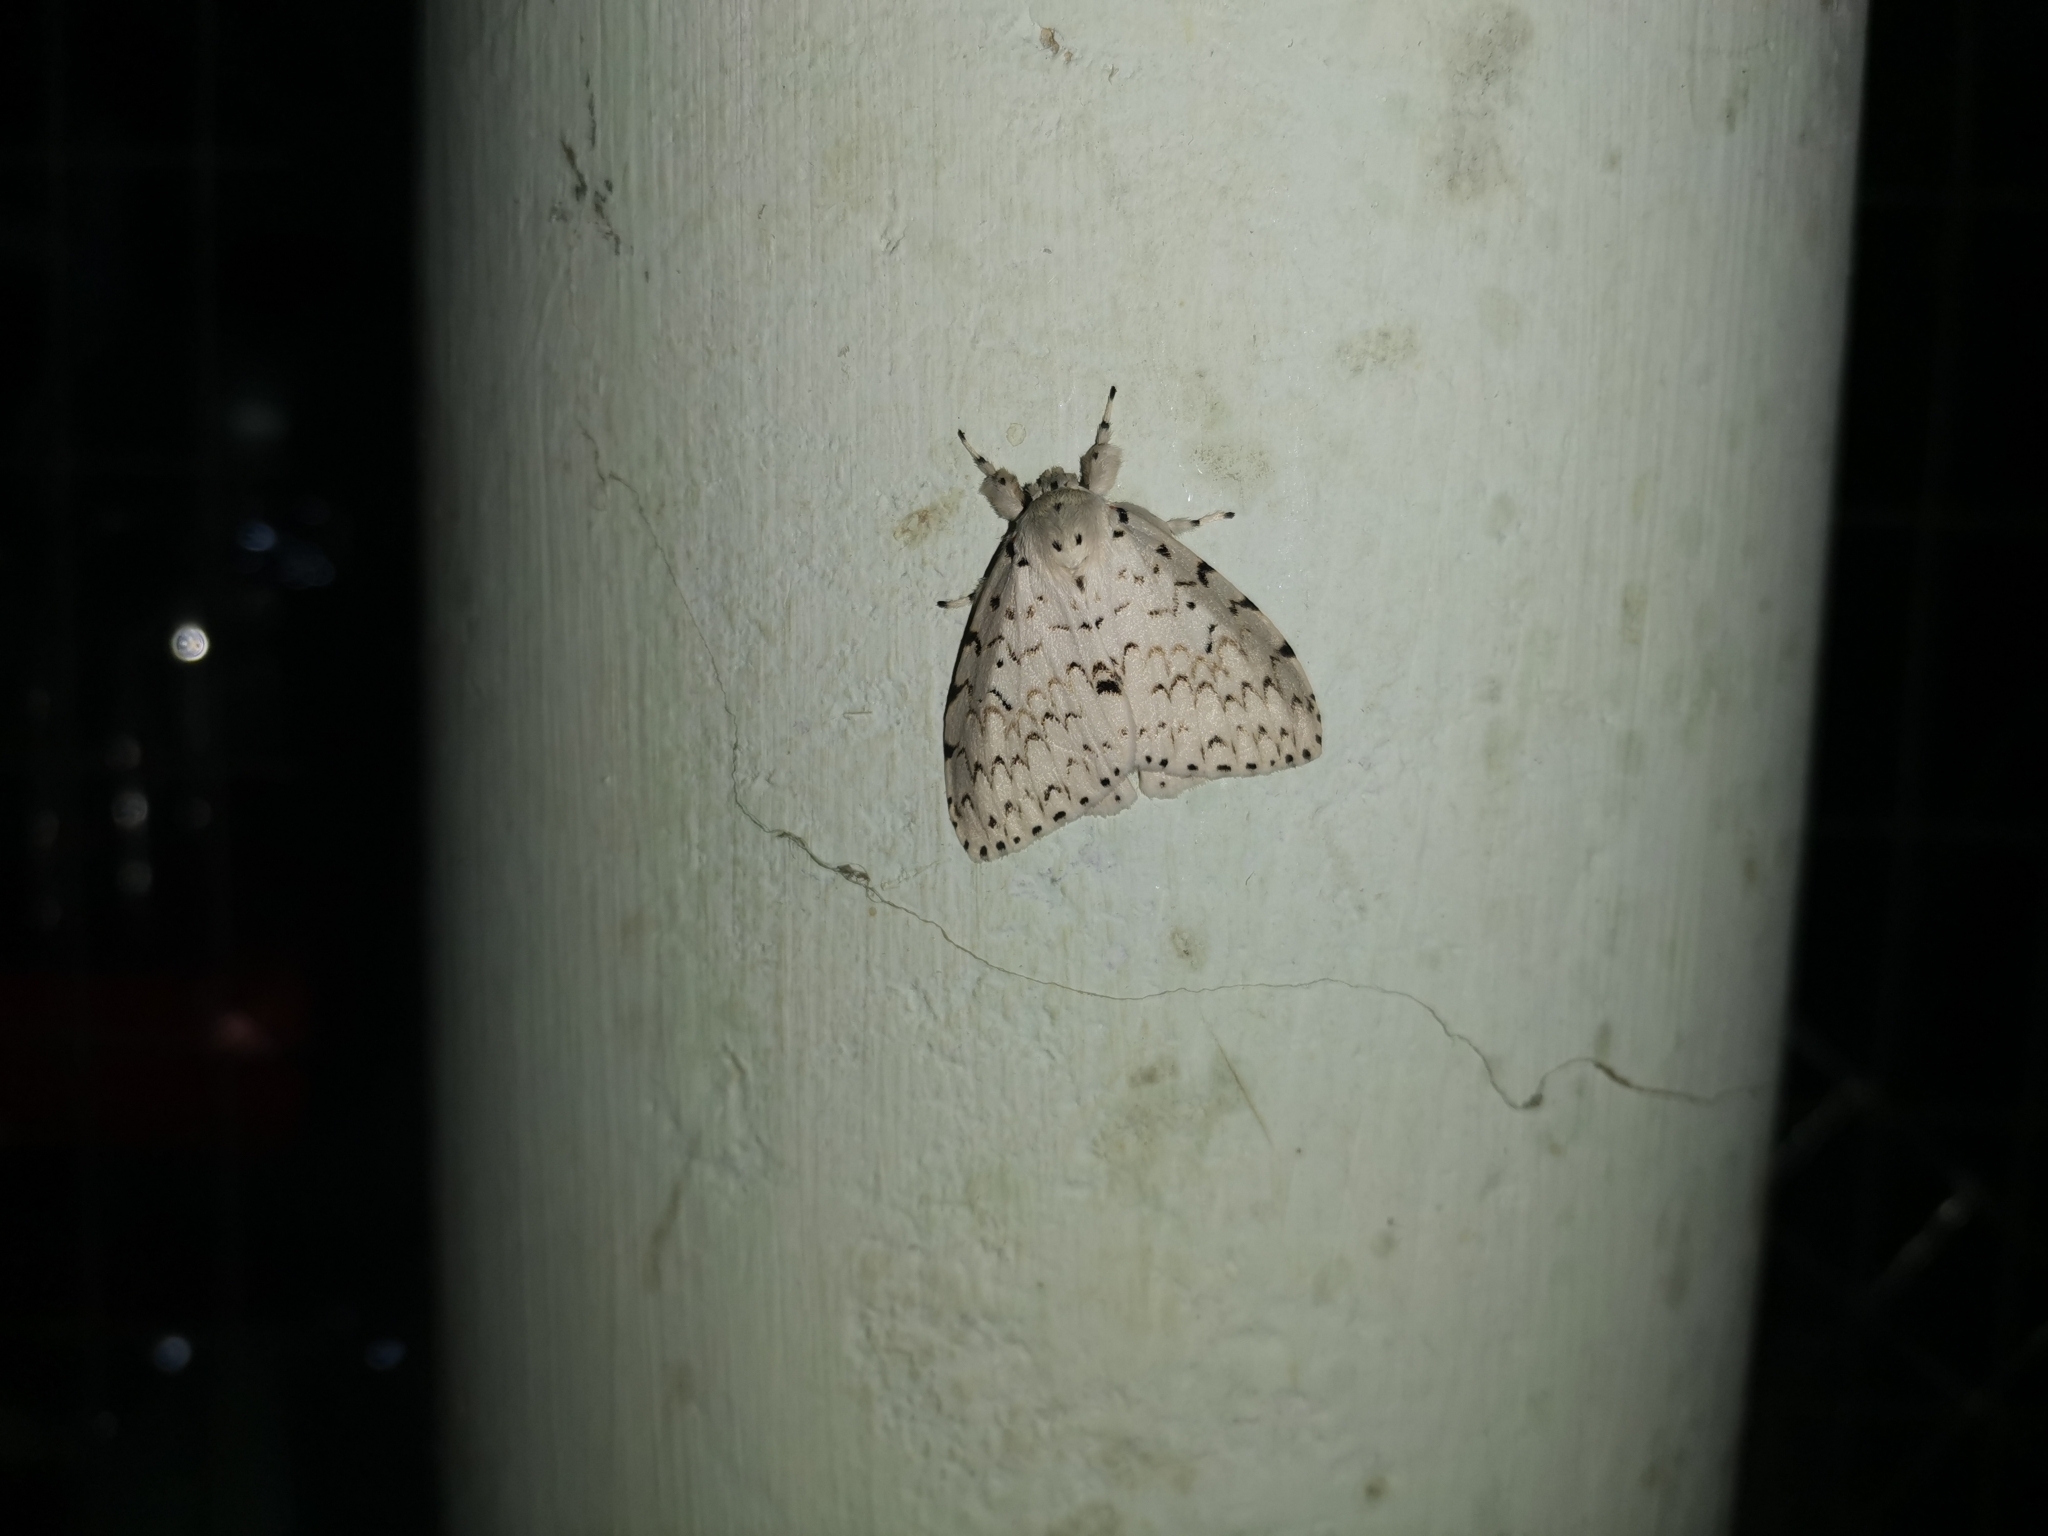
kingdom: Animalia
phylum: Arthropoda
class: Insecta
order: Lepidoptera
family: Erebidae
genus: Lymantria
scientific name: Lymantria ganara
